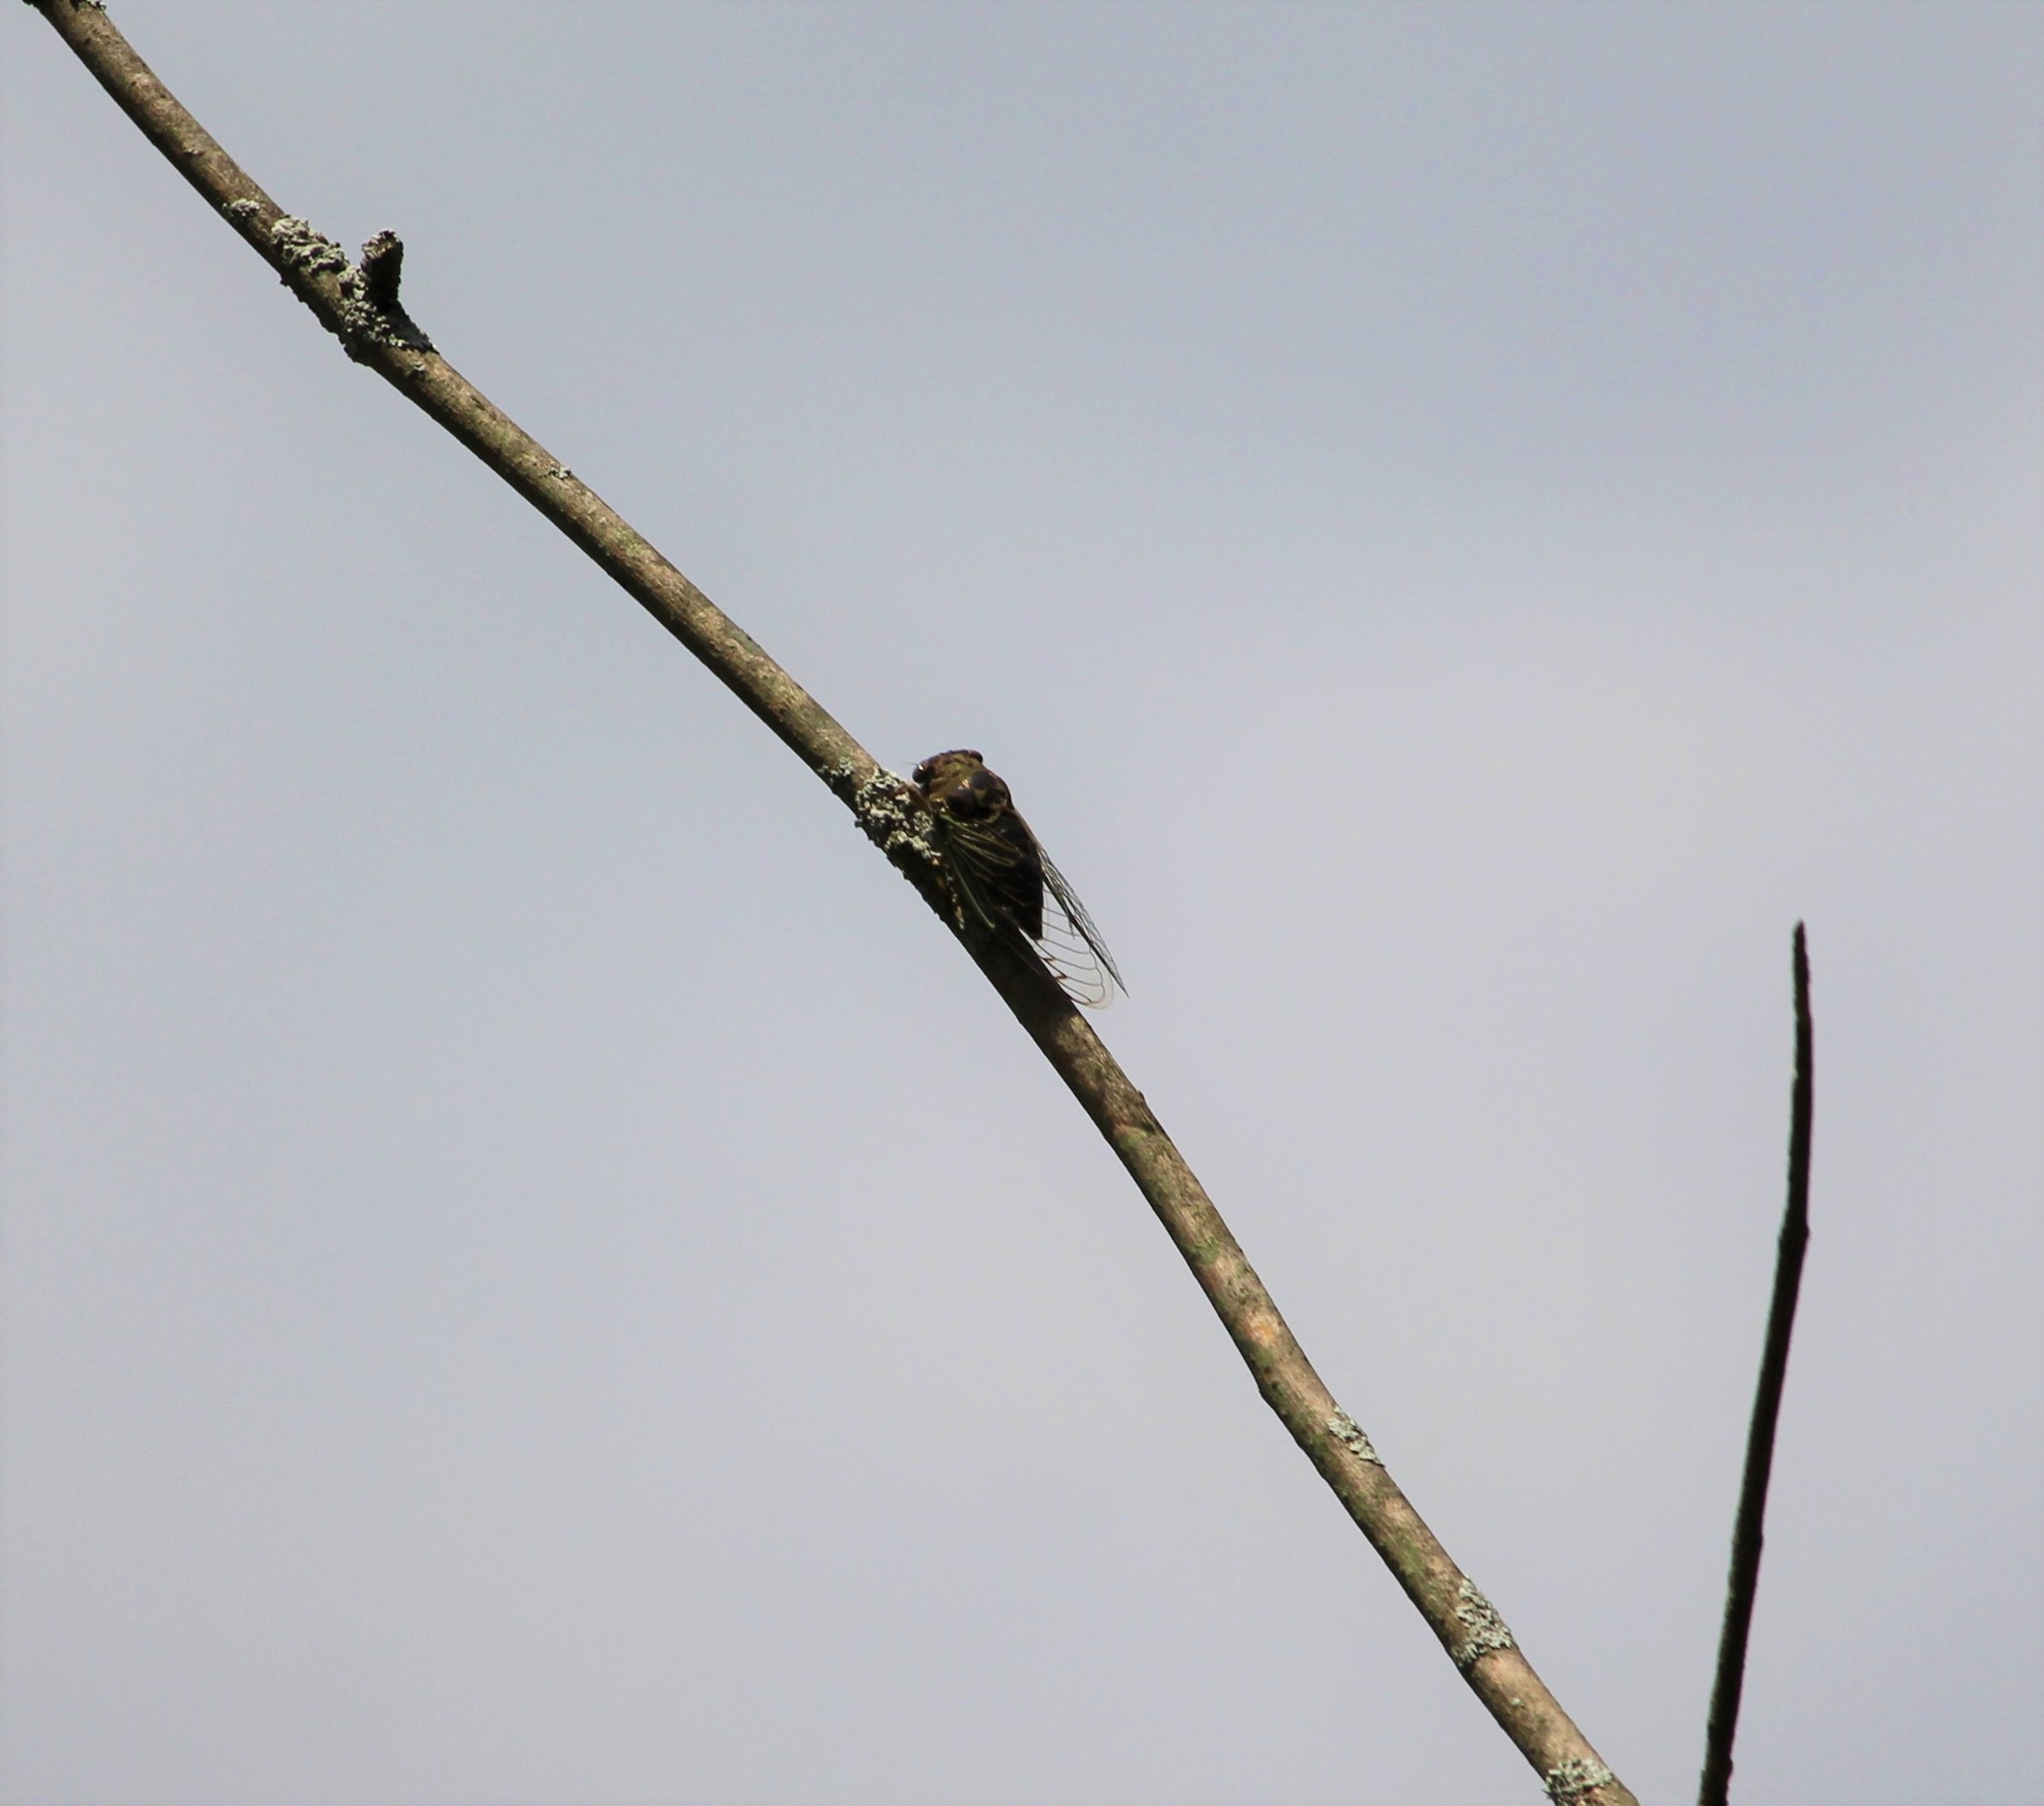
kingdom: Animalia
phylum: Arthropoda
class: Insecta
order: Hemiptera
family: Cicadidae
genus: Neotibicen
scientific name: Neotibicen canicularis
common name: God-day cicada
